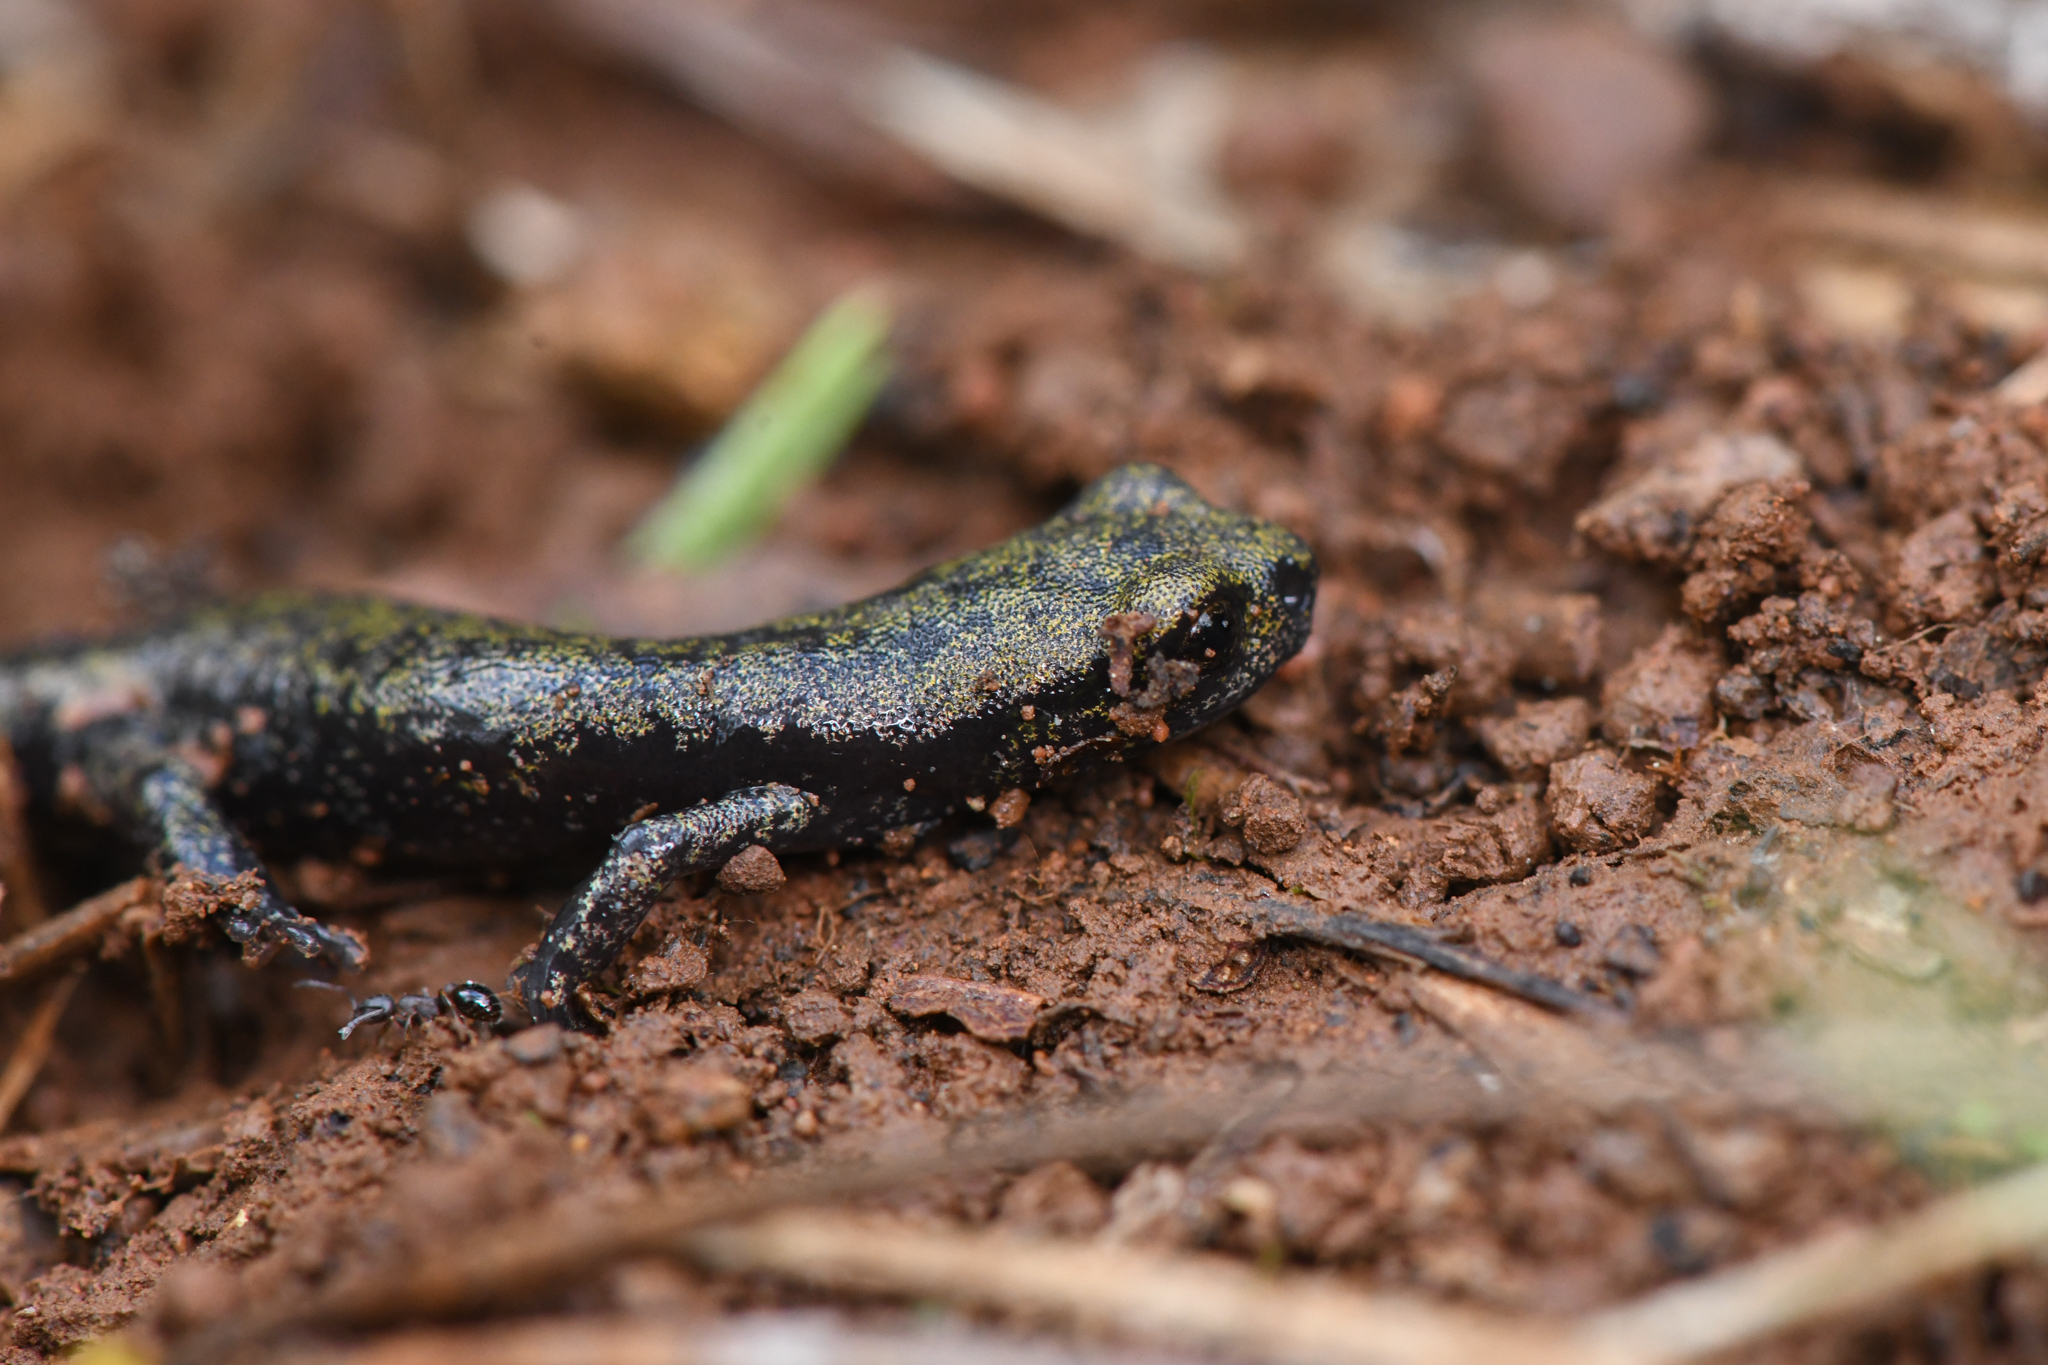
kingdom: Animalia
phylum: Chordata
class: Amphibia
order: Caudata
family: Plethodontidae
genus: Hydromantes
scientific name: Hydromantes samweli
